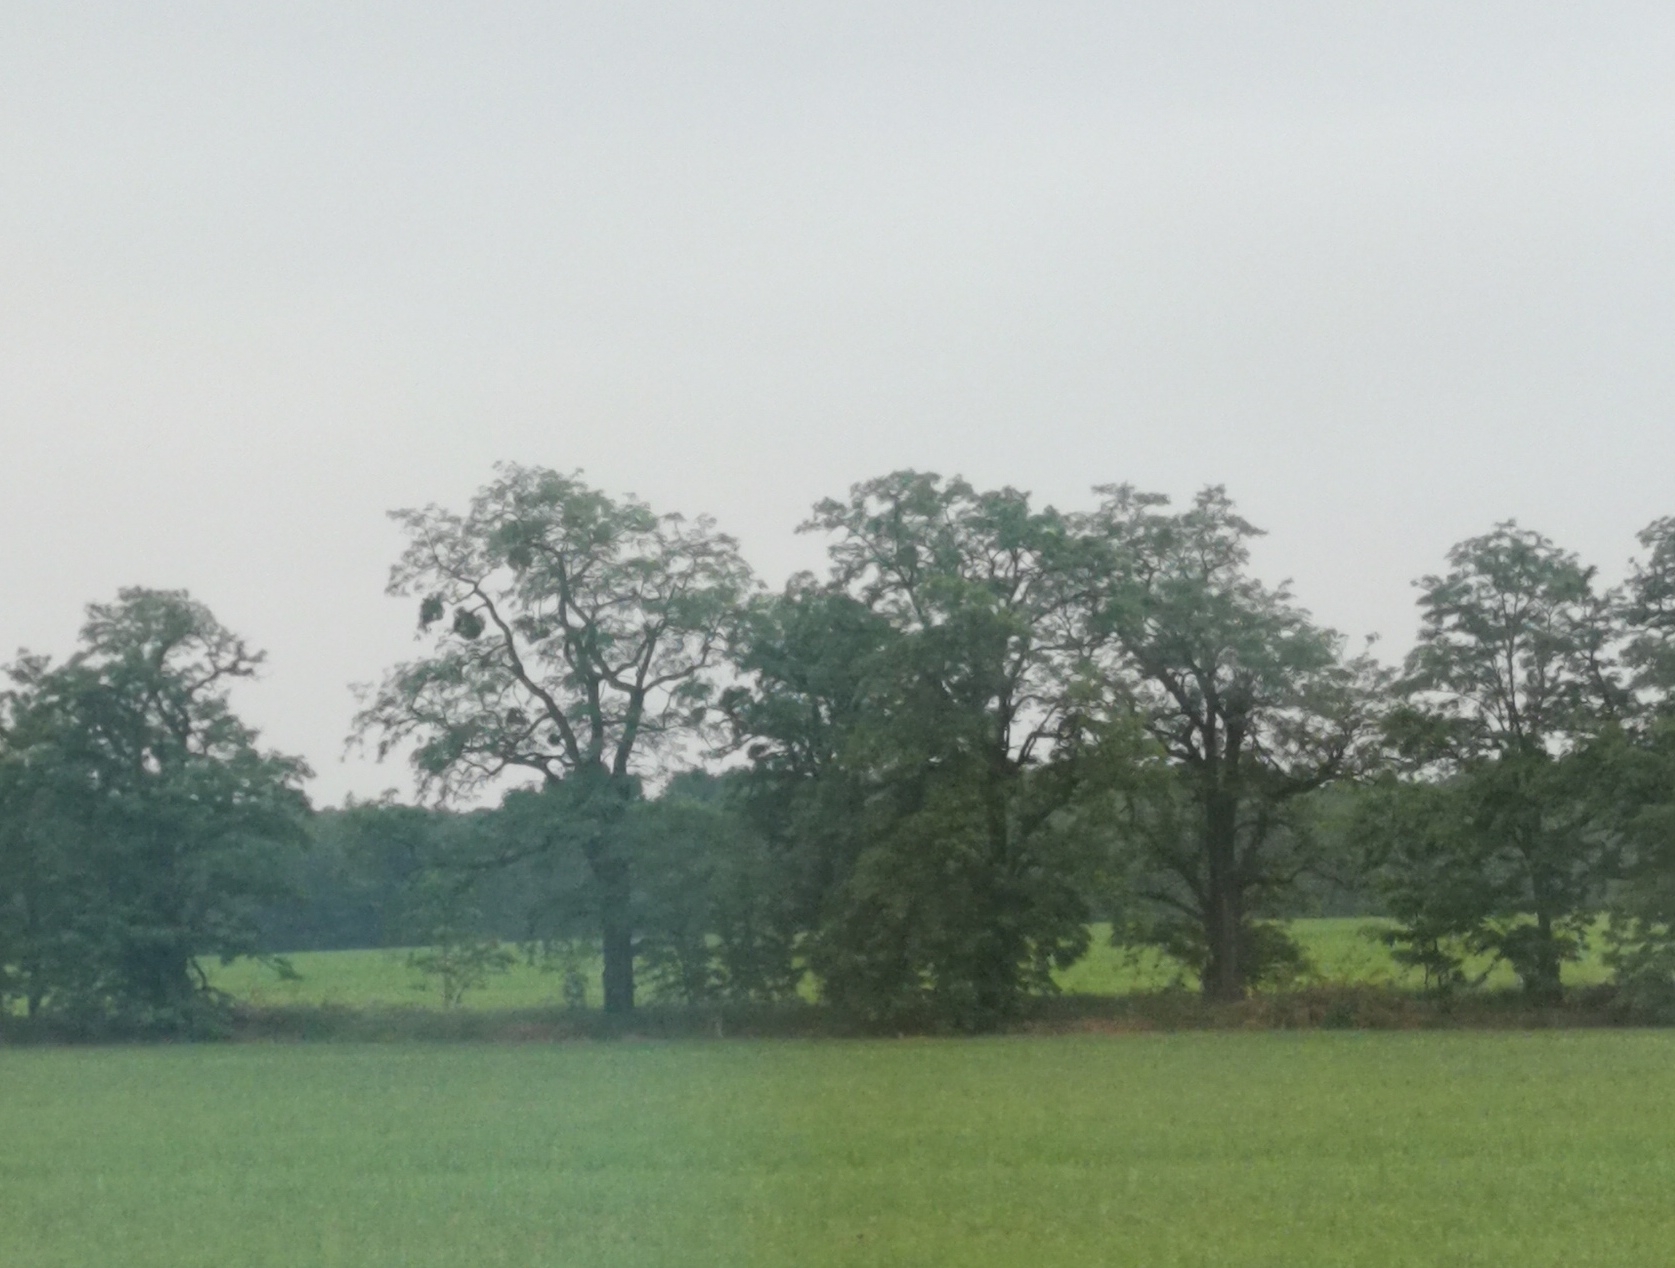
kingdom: Plantae
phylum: Tracheophyta
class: Magnoliopsida
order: Santalales
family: Viscaceae
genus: Viscum
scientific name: Viscum album
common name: Mistletoe
